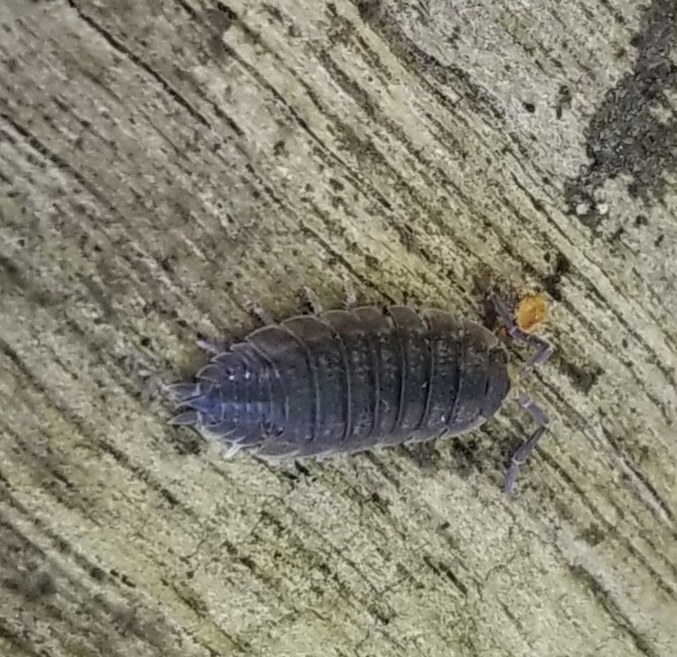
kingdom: Animalia
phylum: Arthropoda
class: Malacostraca
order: Isopoda
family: Porcellionidae
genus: Porcellio
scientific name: Porcellio scaber
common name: Common rough woodlouse
